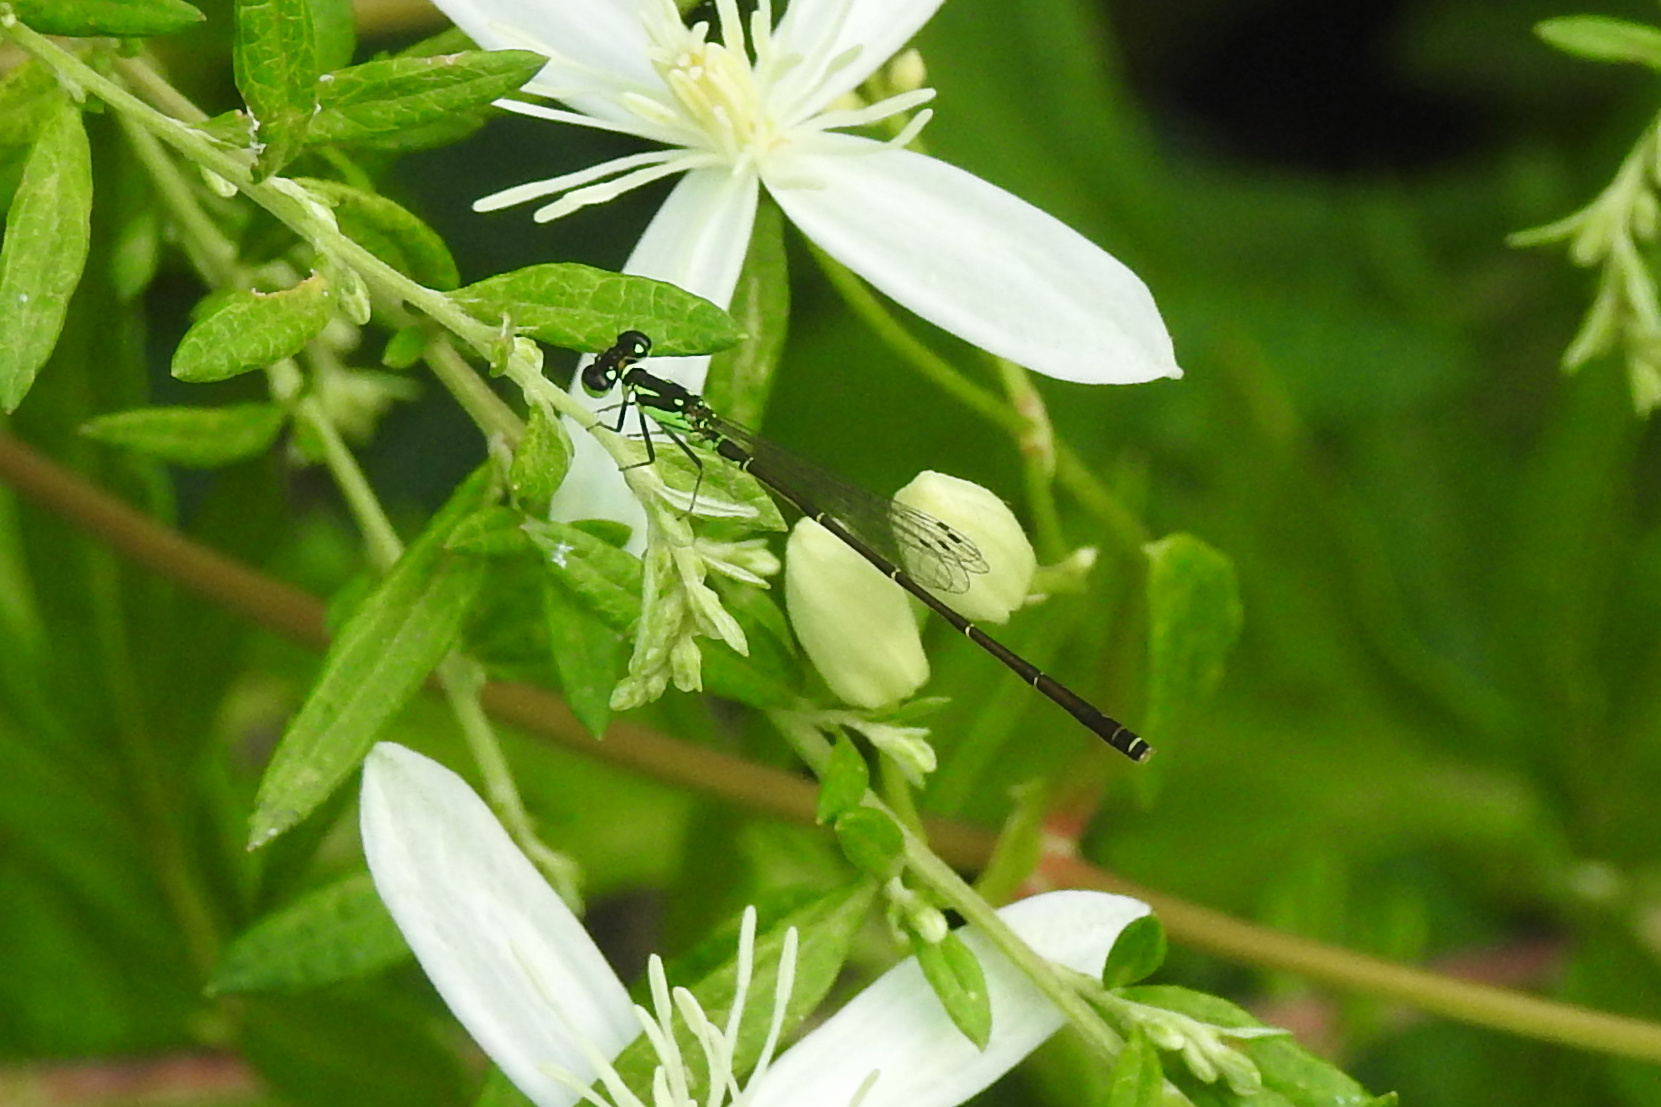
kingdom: Animalia
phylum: Arthropoda
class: Insecta
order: Odonata
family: Coenagrionidae
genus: Ischnura
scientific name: Ischnura posita
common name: Fragile forktail
